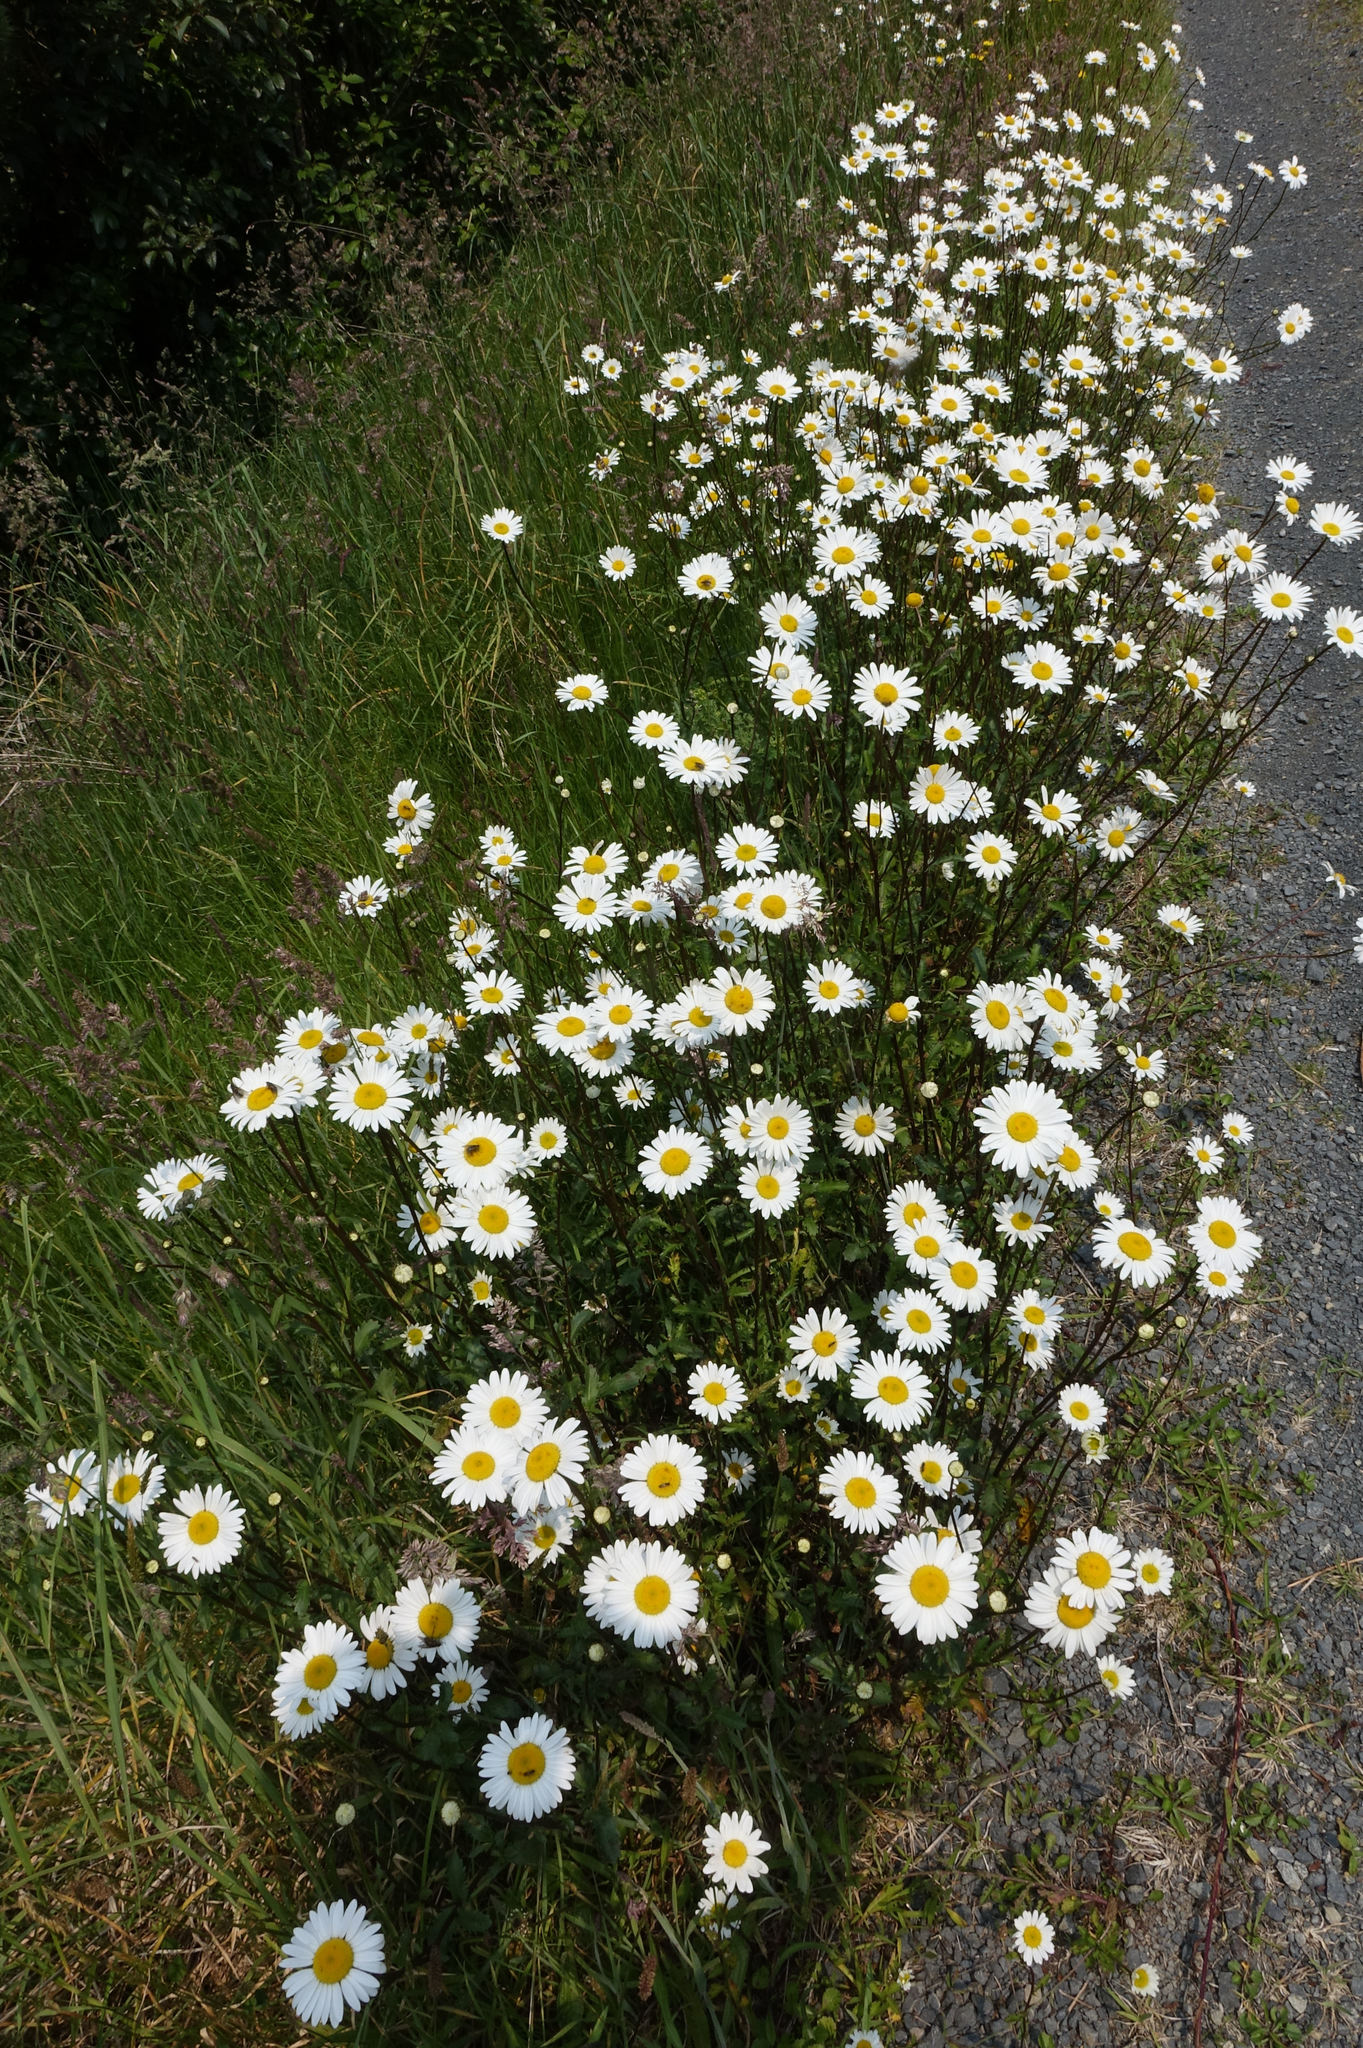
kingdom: Plantae
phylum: Tracheophyta
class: Magnoliopsida
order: Asterales
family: Asteraceae
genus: Leucanthemum
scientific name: Leucanthemum vulgare
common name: Oxeye daisy
